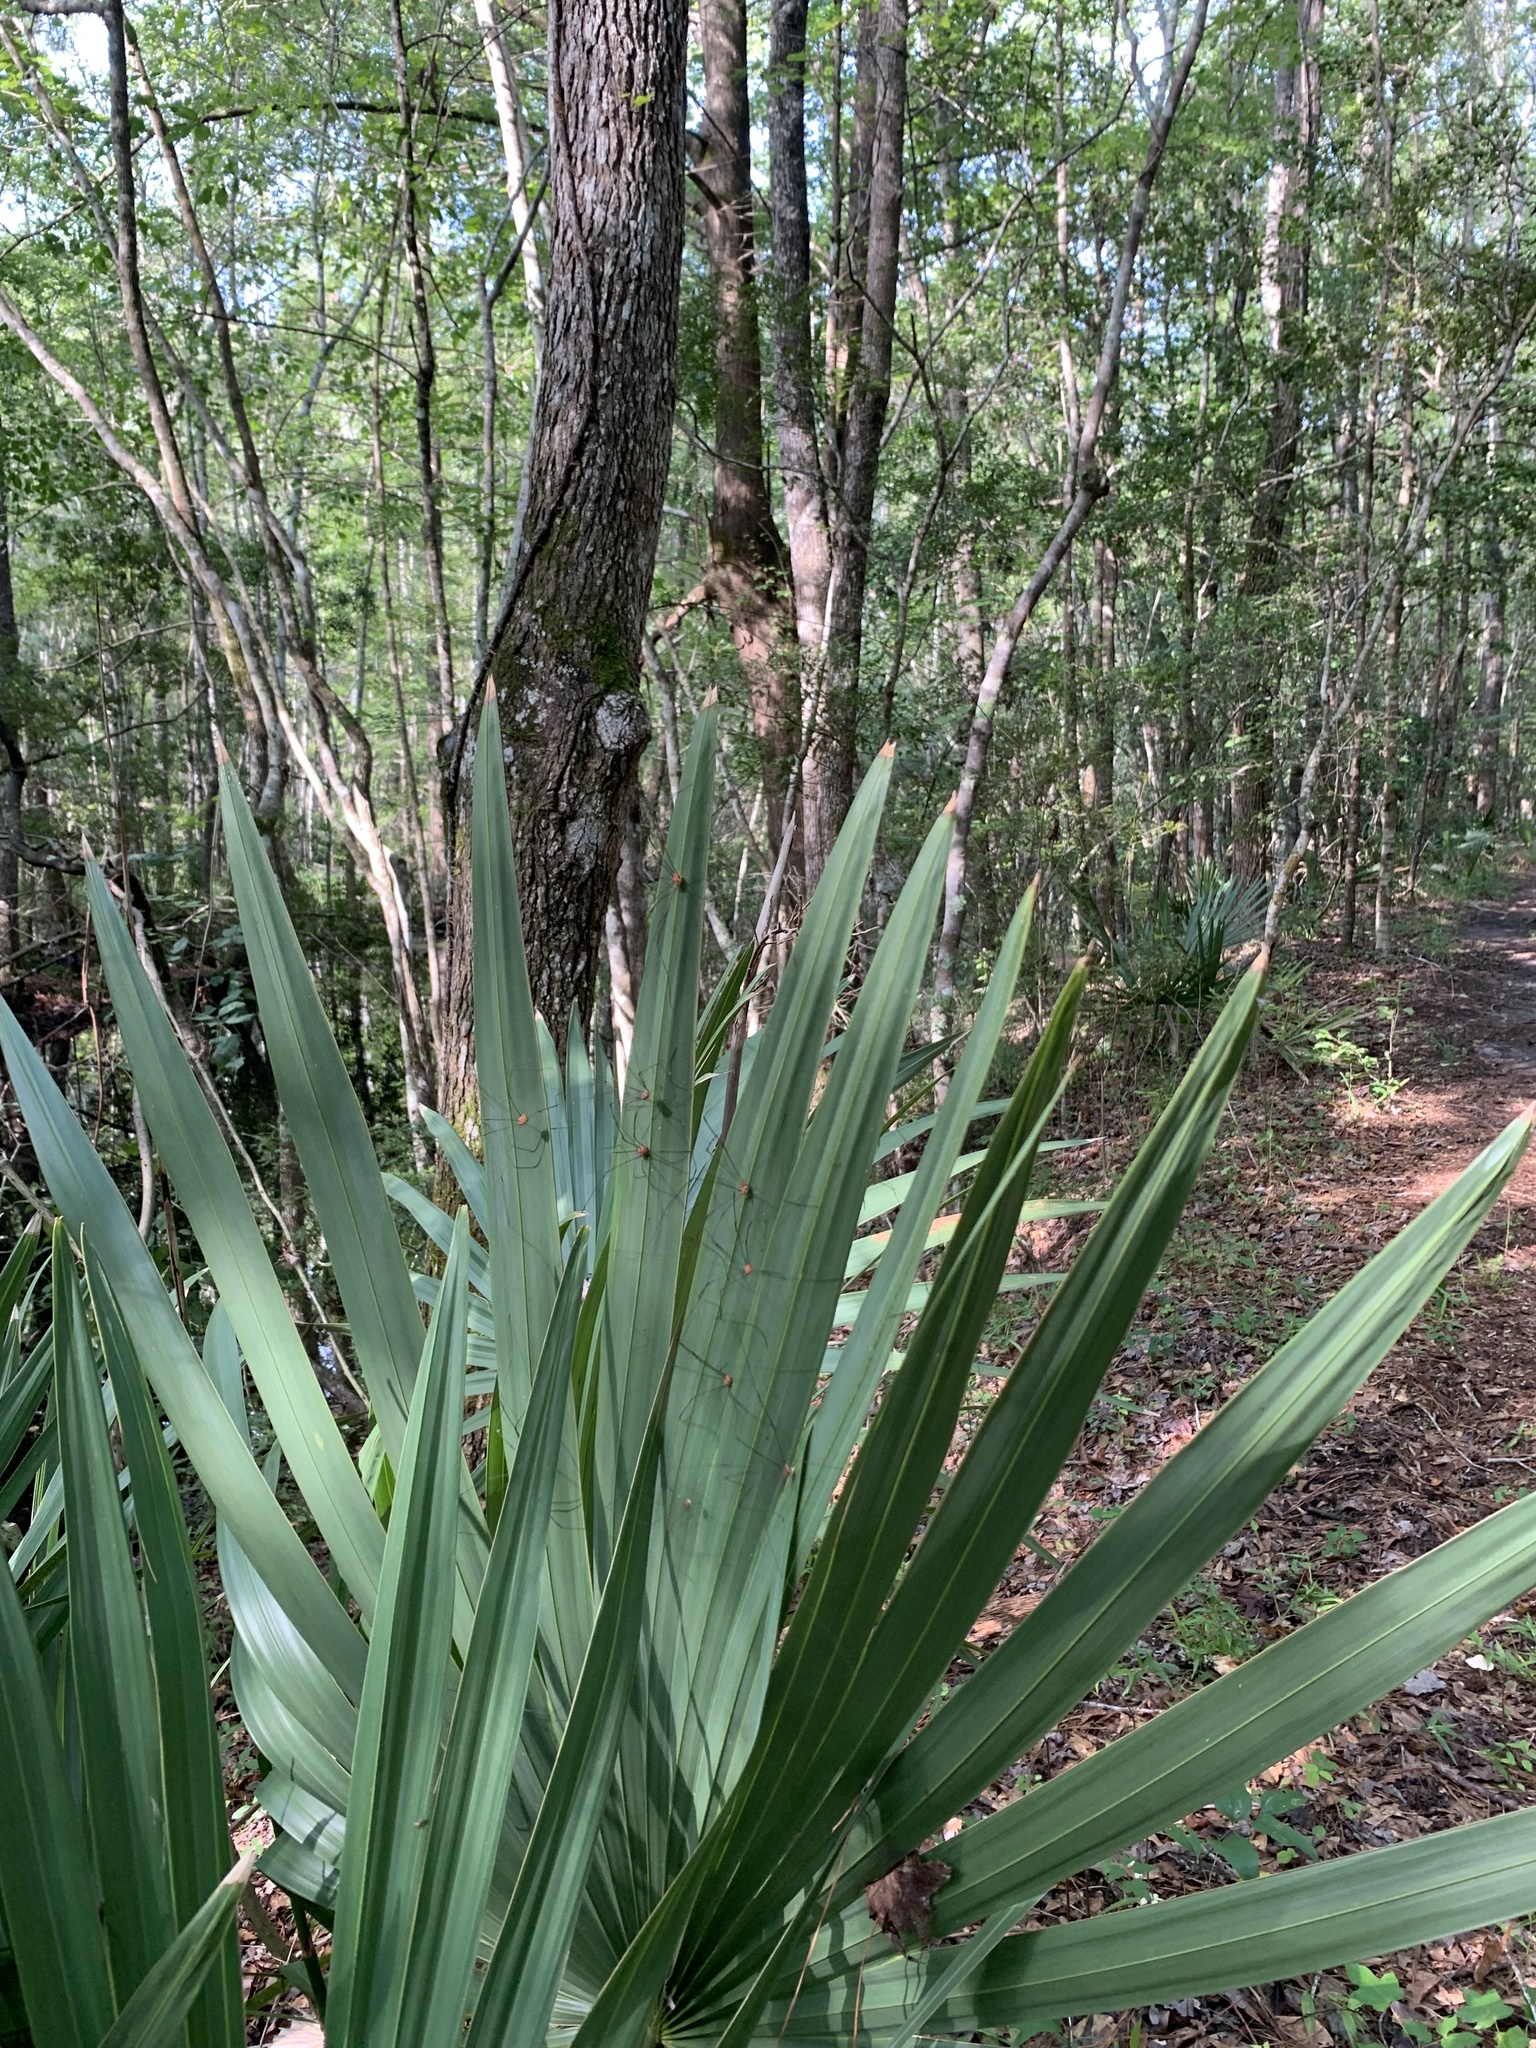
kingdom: Plantae
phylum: Tracheophyta
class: Liliopsida
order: Arecales
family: Arecaceae
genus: Sabal
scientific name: Sabal minor
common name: Dwarf palmetto
